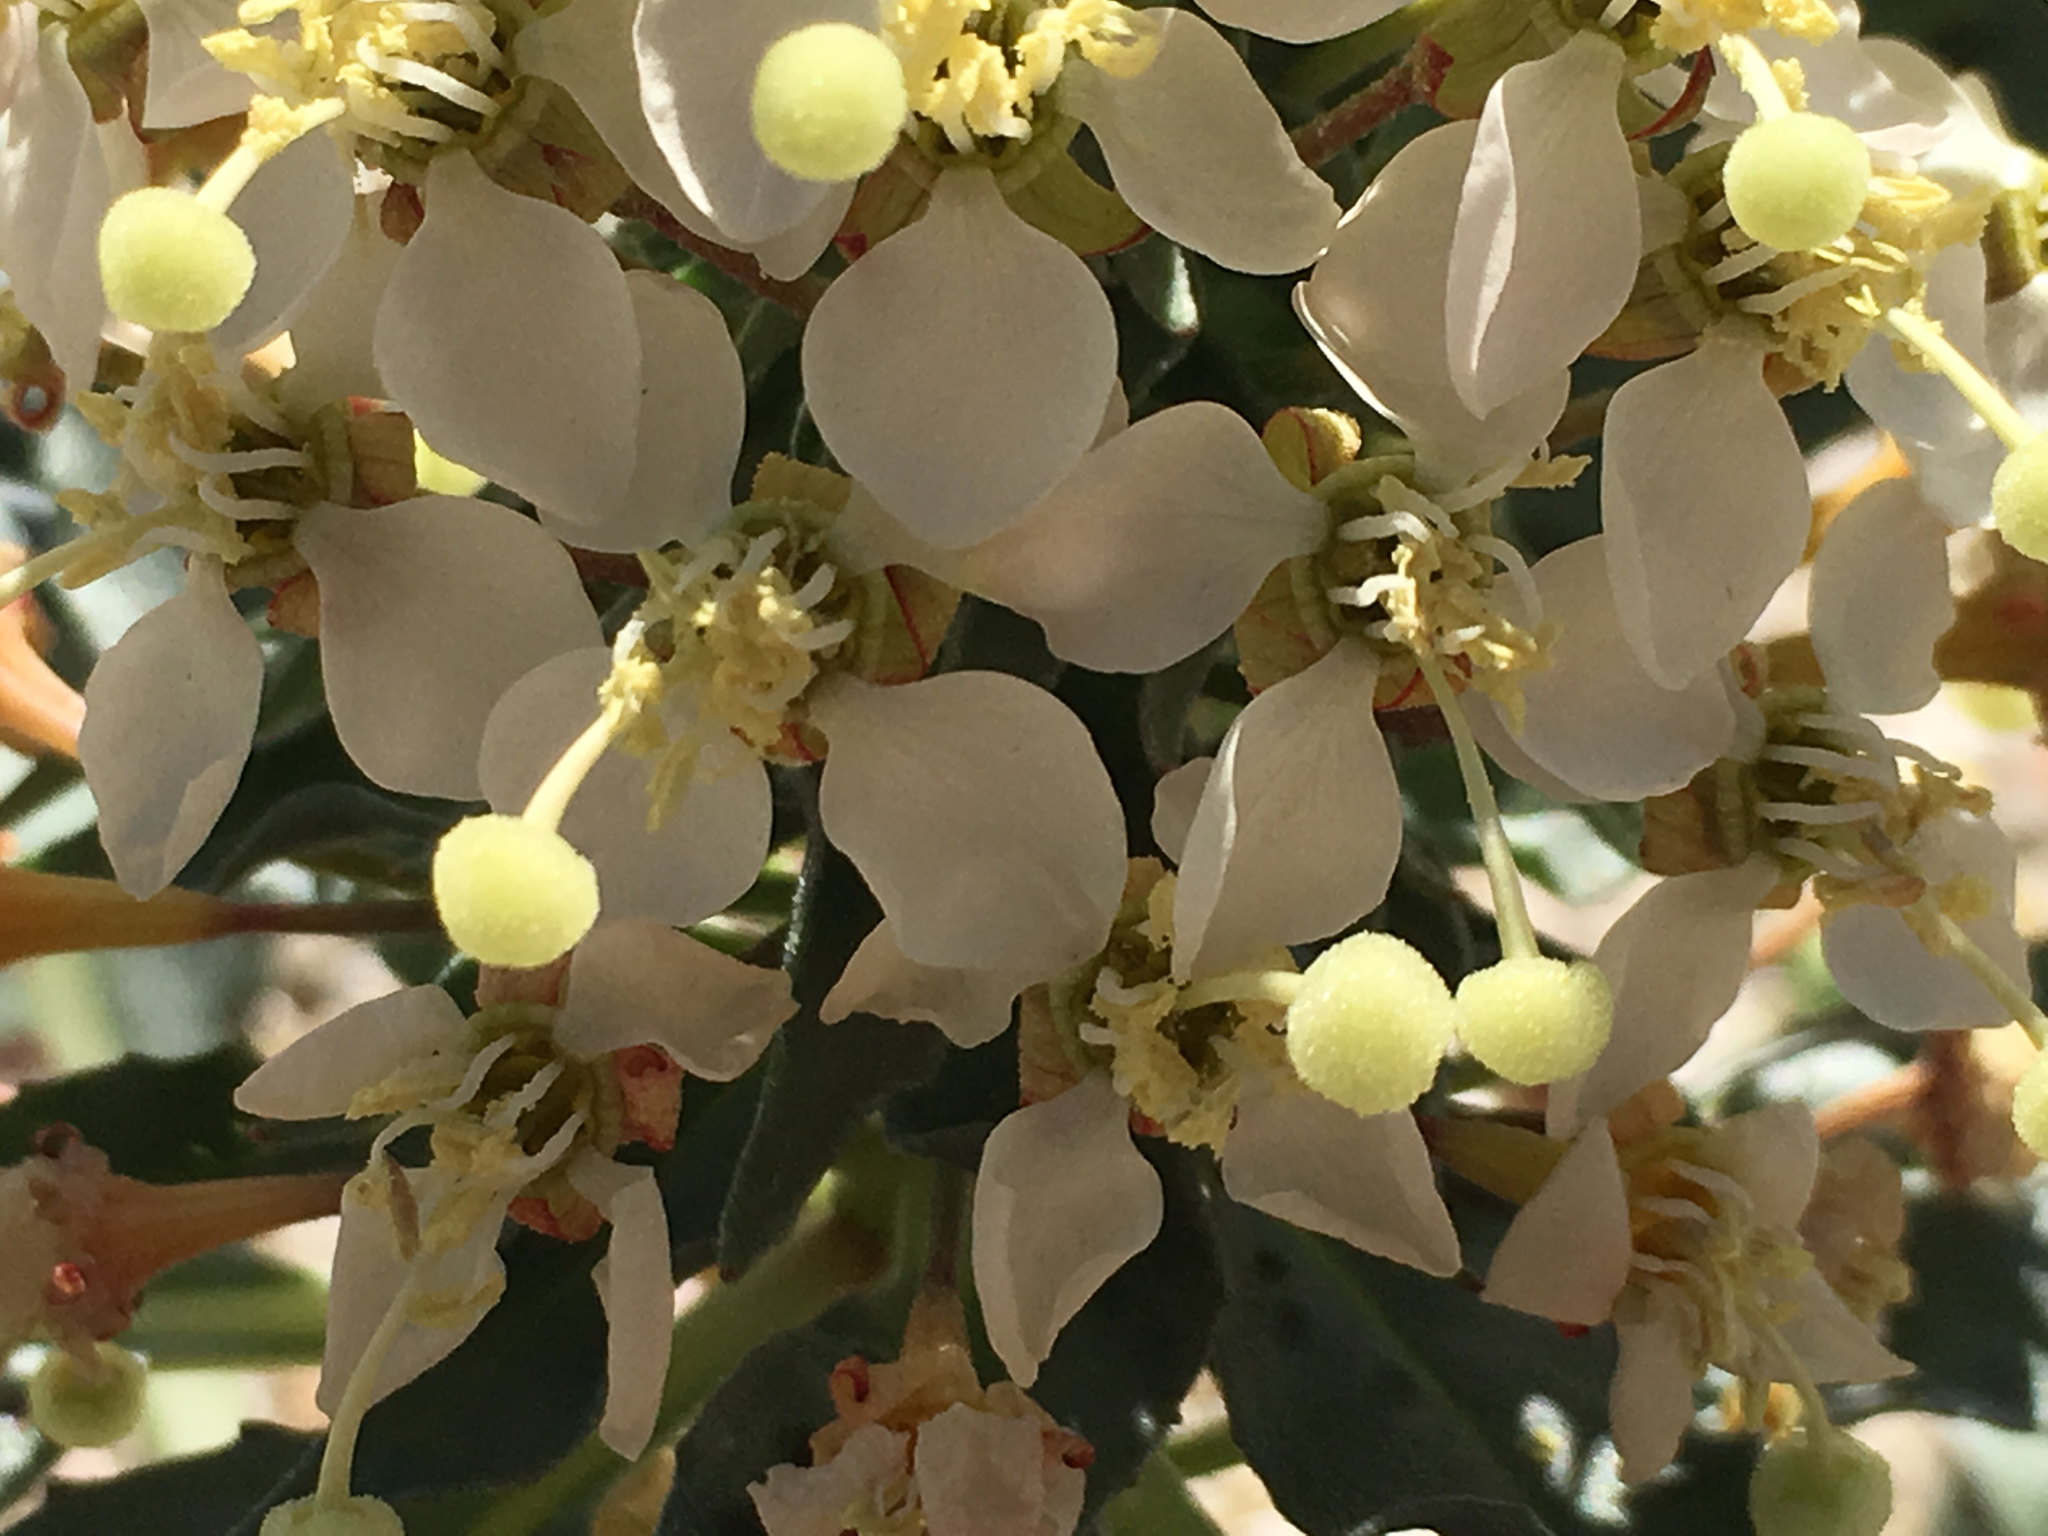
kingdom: Plantae
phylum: Tracheophyta
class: Magnoliopsida
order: Myrtales
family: Onagraceae
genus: Eremothera
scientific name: Eremothera boothii
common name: Booth's evening primrose
